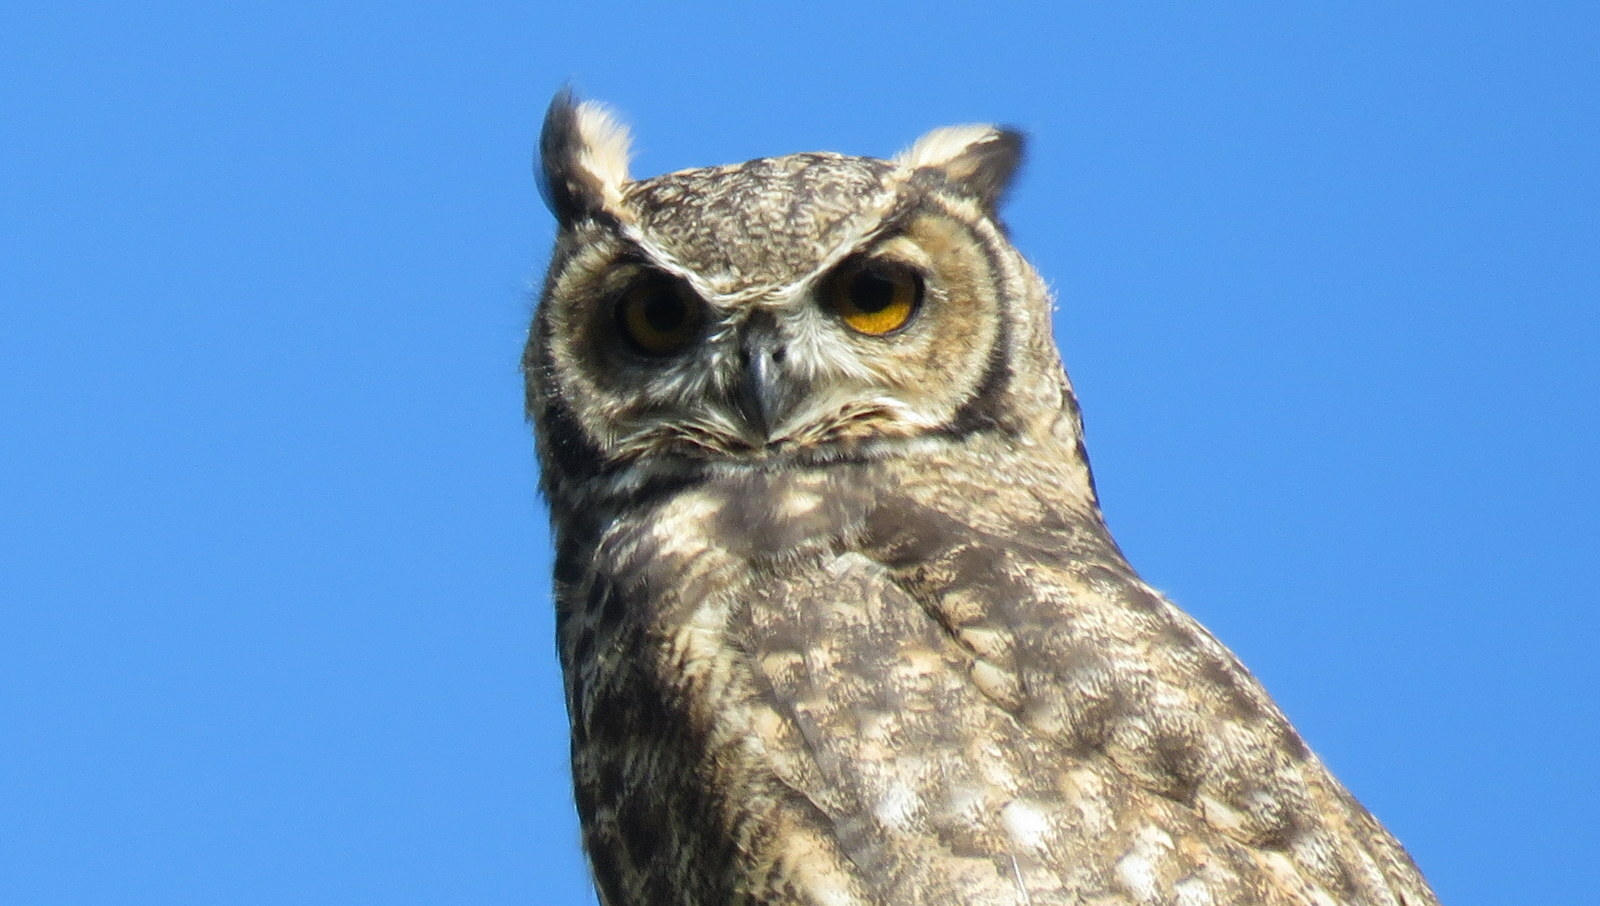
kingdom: Animalia
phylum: Chordata
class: Aves
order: Strigiformes
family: Strigidae
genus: Bubo
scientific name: Bubo magellanicus
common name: Lesser horned owl
